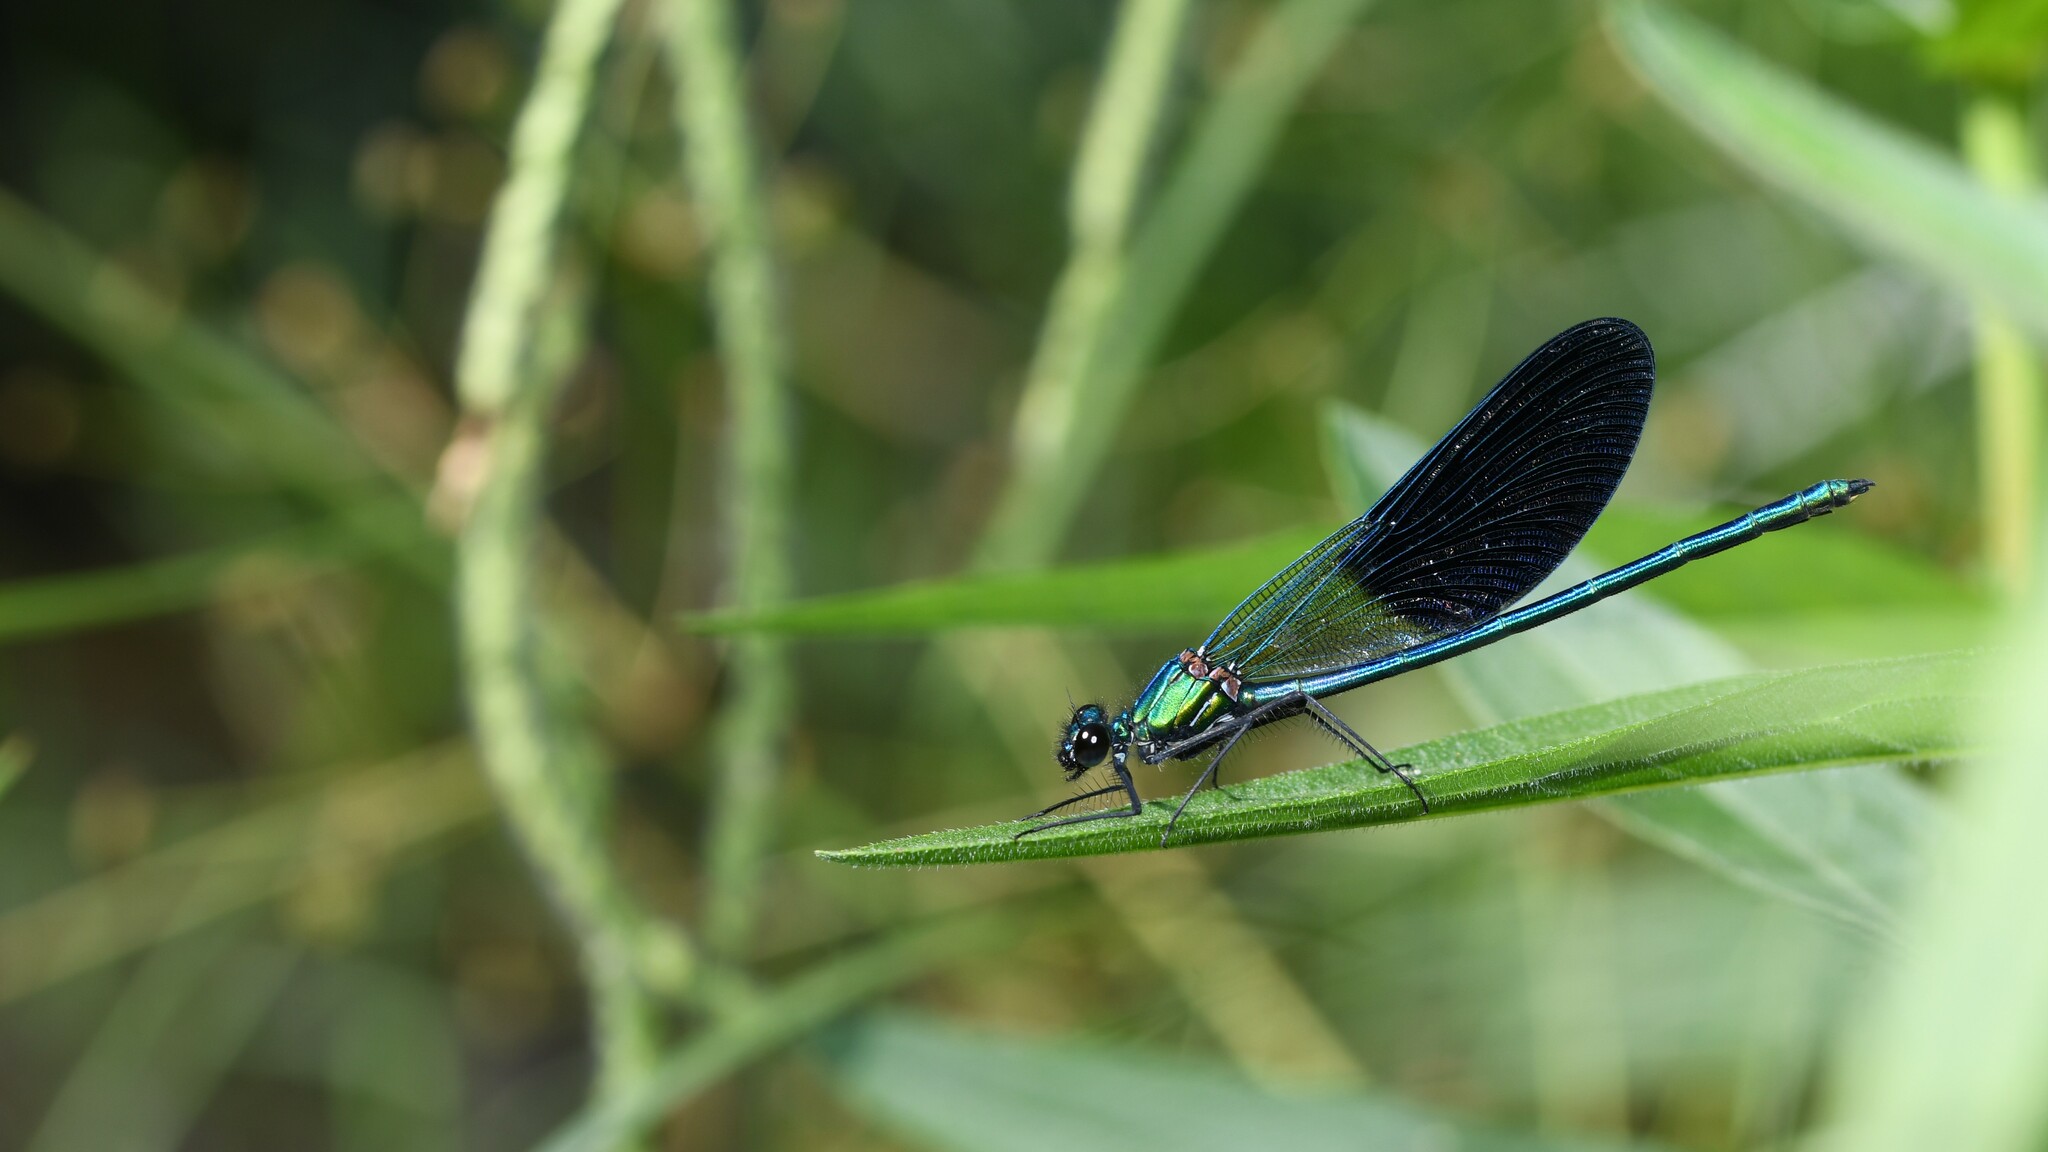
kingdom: Animalia
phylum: Arthropoda
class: Insecta
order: Odonata
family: Calopterygidae
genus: Calopteryx
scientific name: Calopteryx xanthostoma
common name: Western demoiselle
